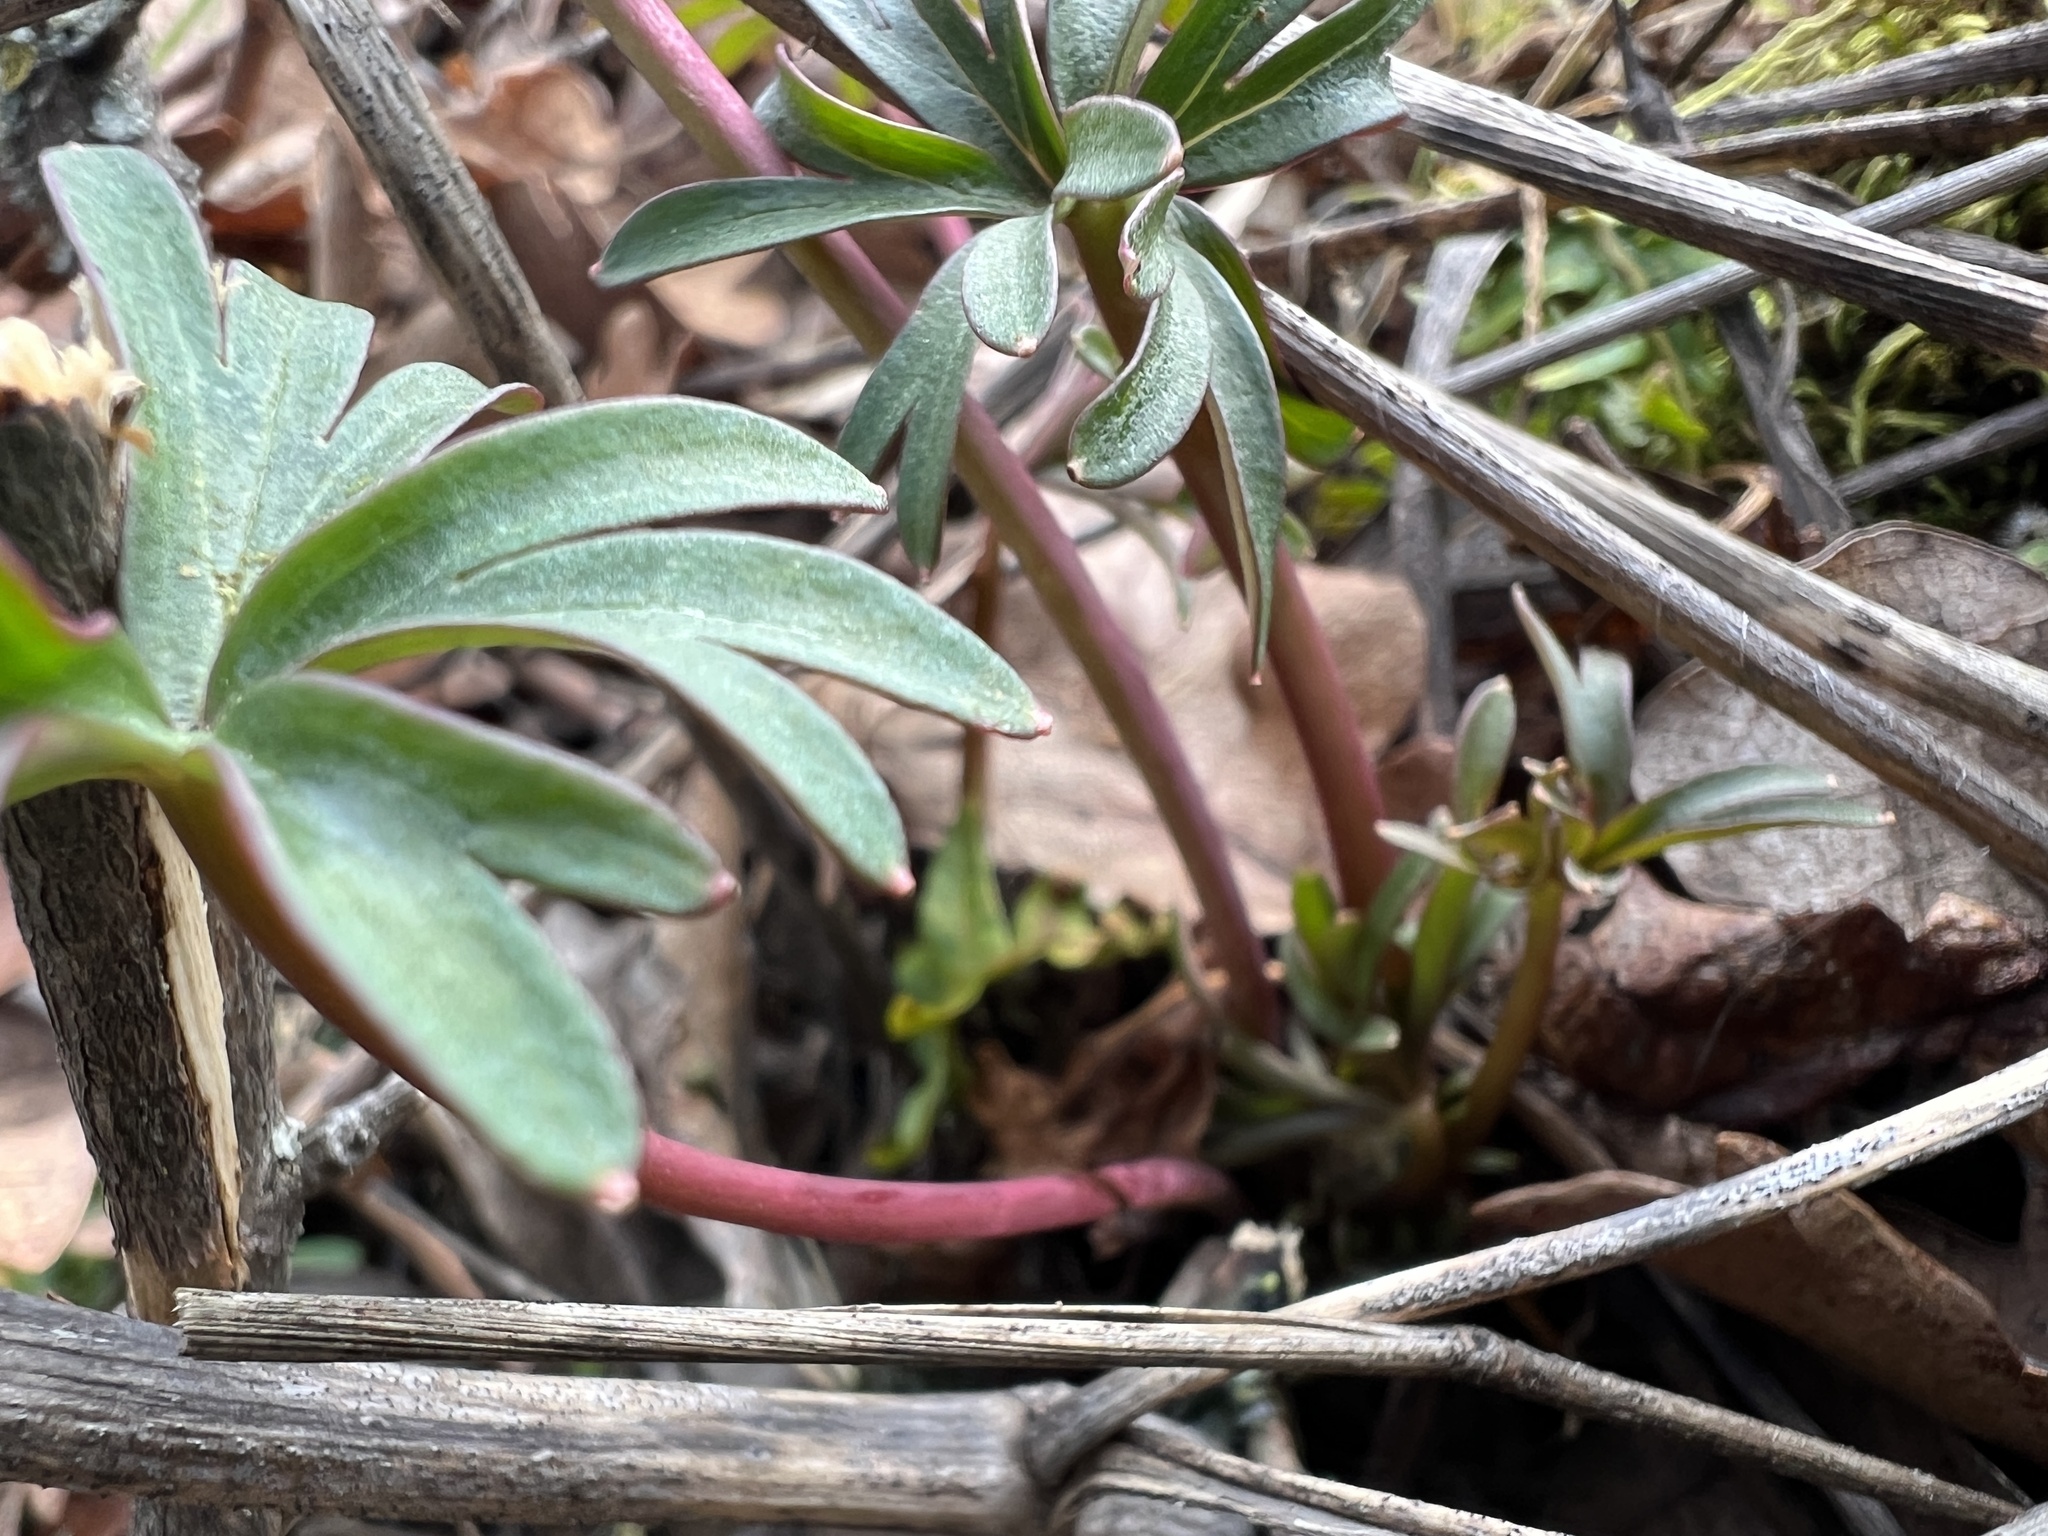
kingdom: Plantae
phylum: Tracheophyta
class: Magnoliopsida
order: Ranunculales
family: Ranunculaceae
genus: Delphinium
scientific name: Delphinium nuttallianum
